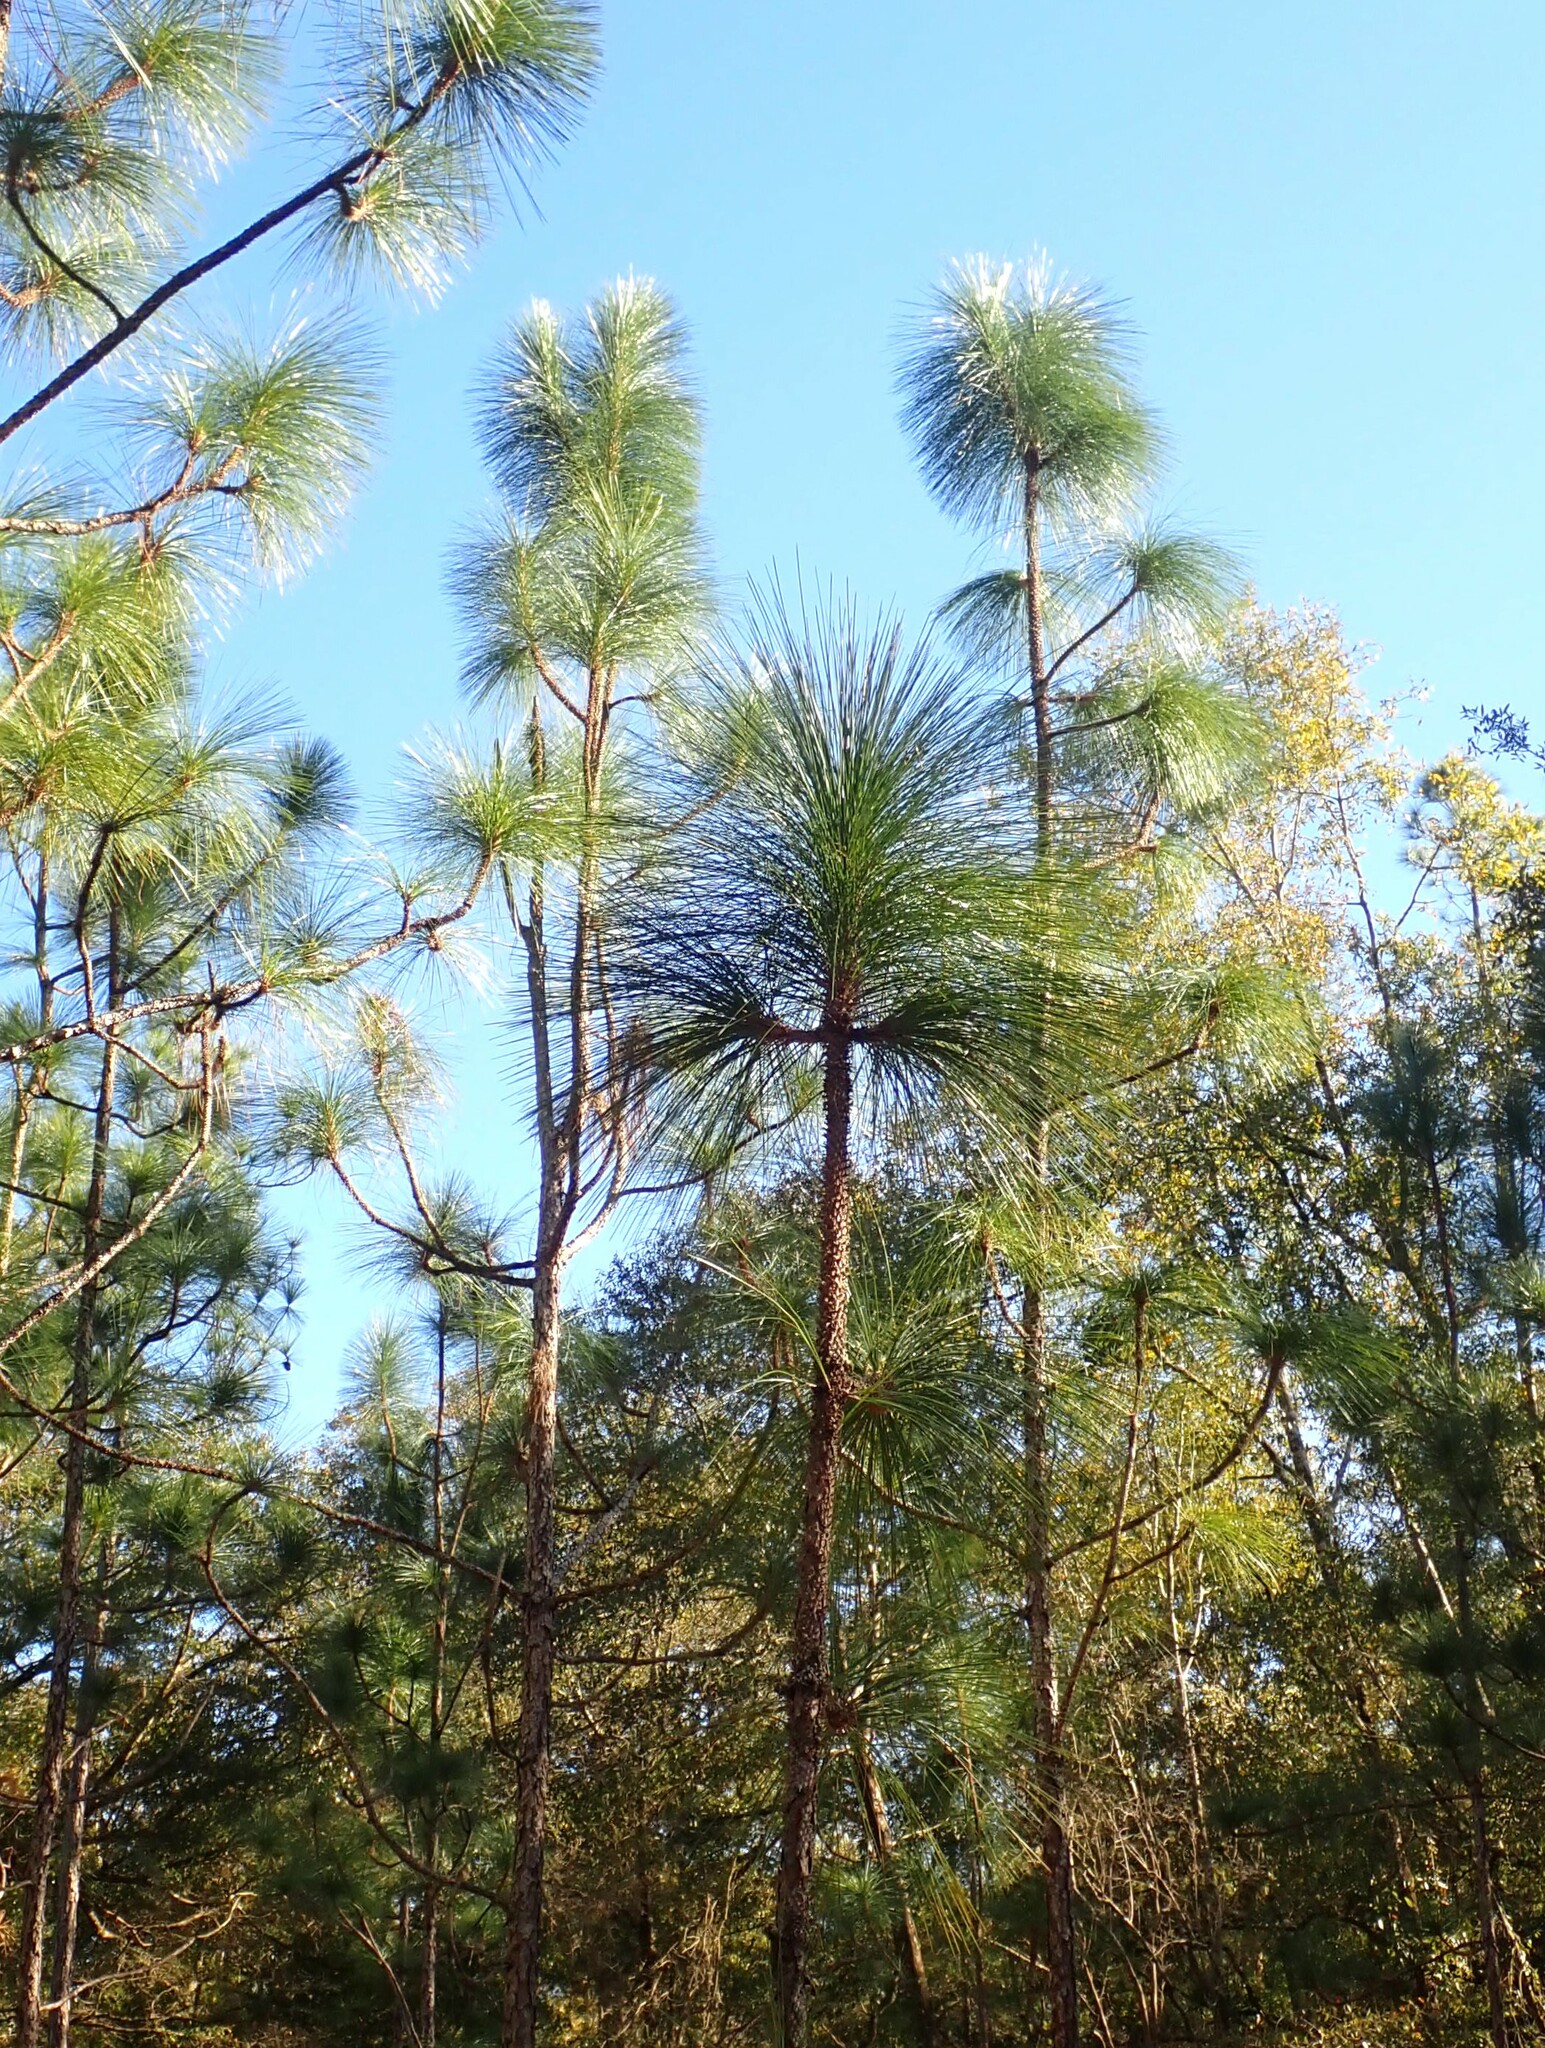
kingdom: Plantae
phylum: Tracheophyta
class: Pinopsida
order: Pinales
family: Pinaceae
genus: Pinus
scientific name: Pinus palustris
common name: Longleaf pine
